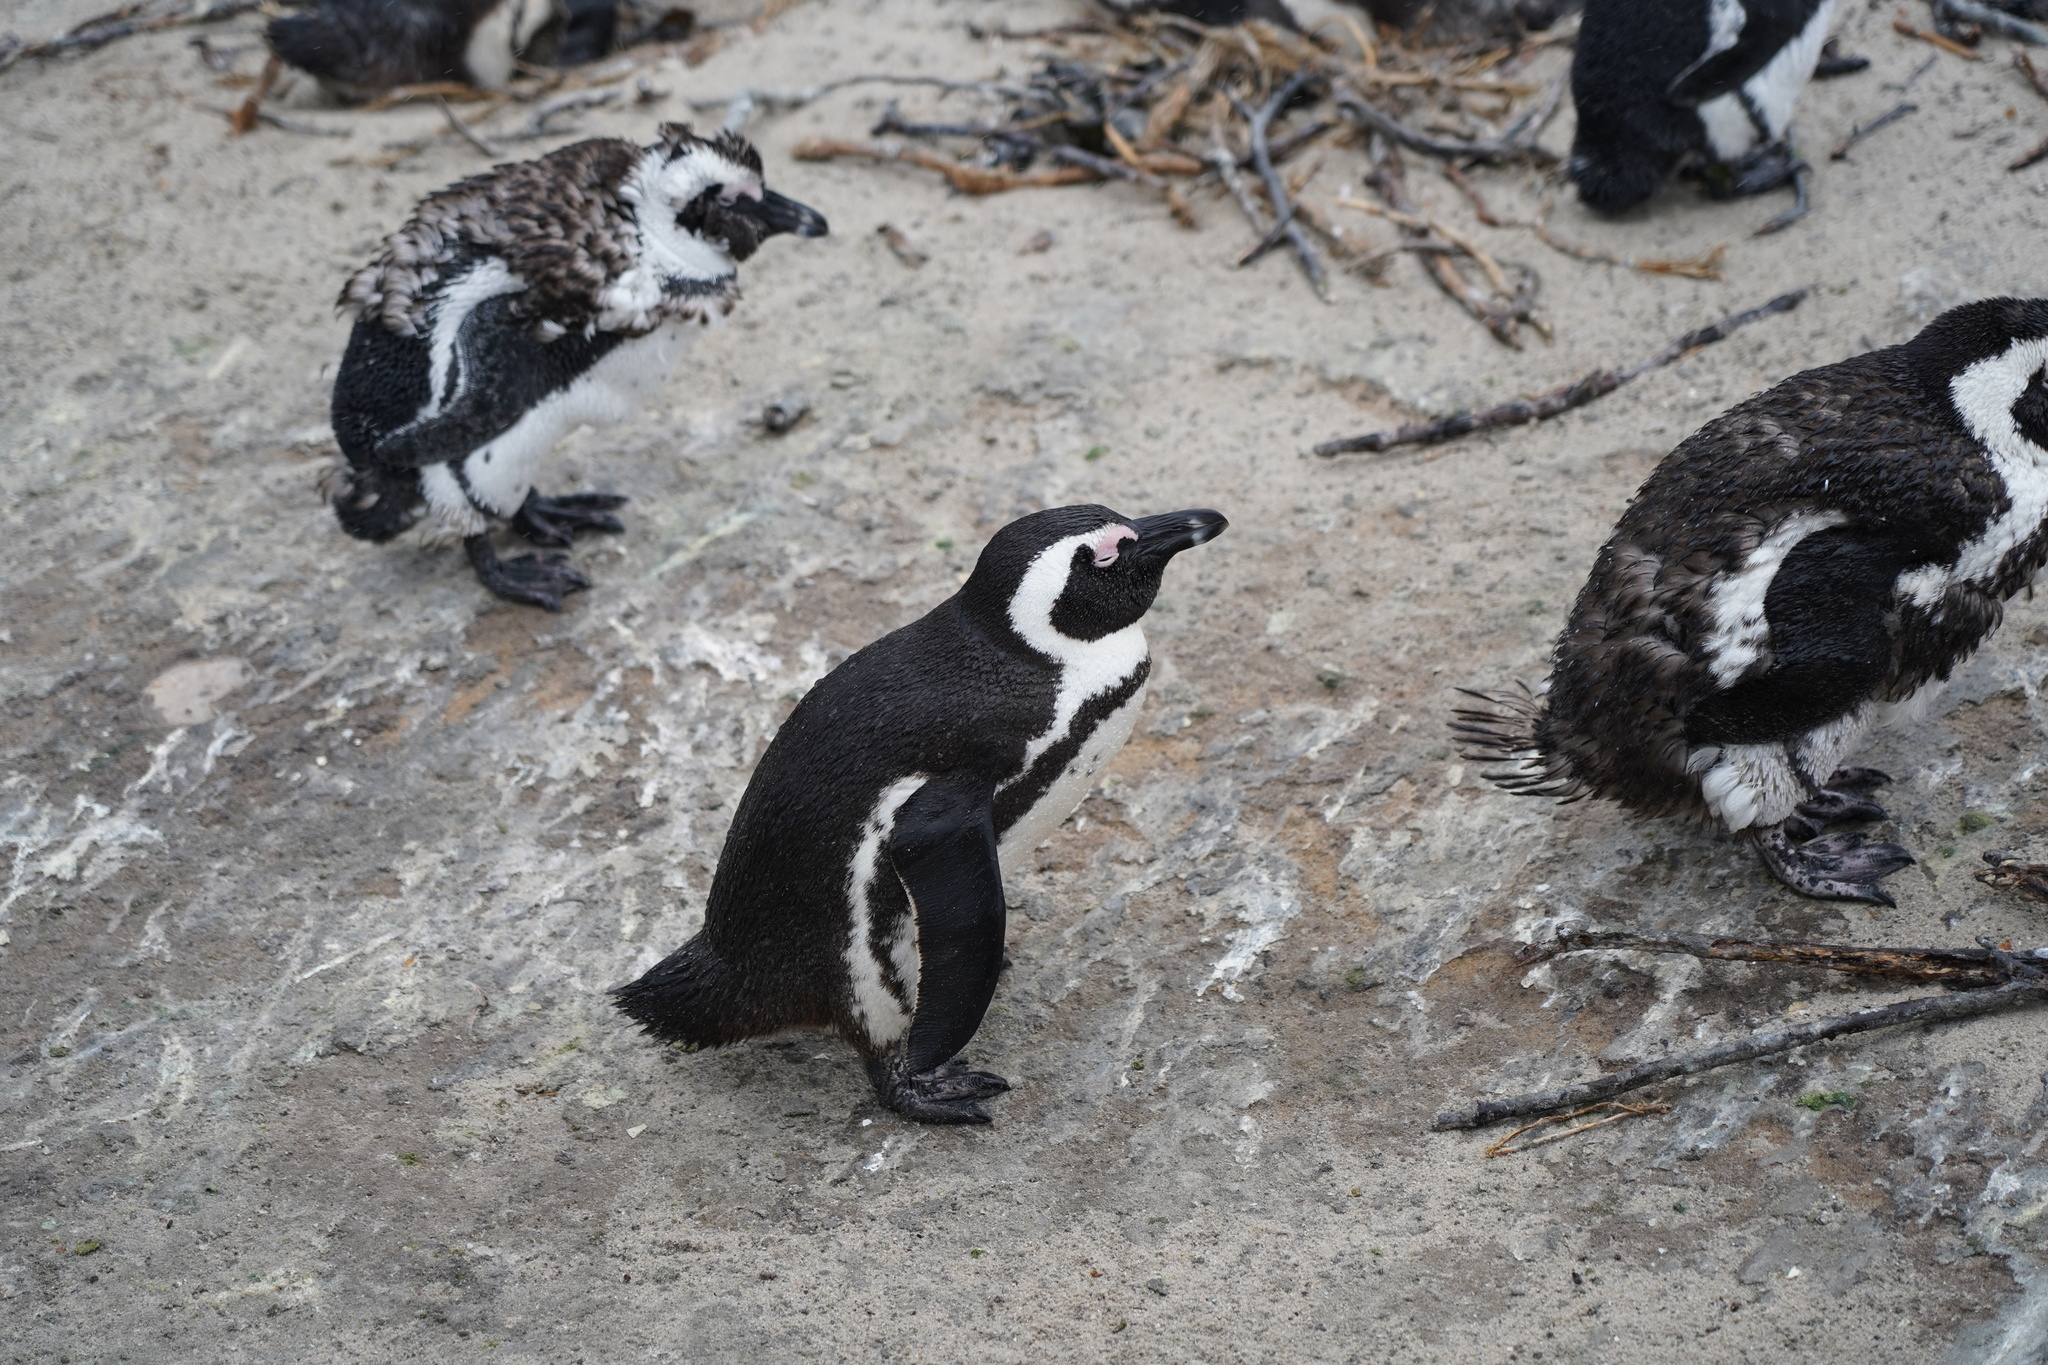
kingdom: Animalia
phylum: Chordata
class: Aves
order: Sphenisciformes
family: Spheniscidae
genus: Spheniscus
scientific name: Spheniscus demersus
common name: African penguin
